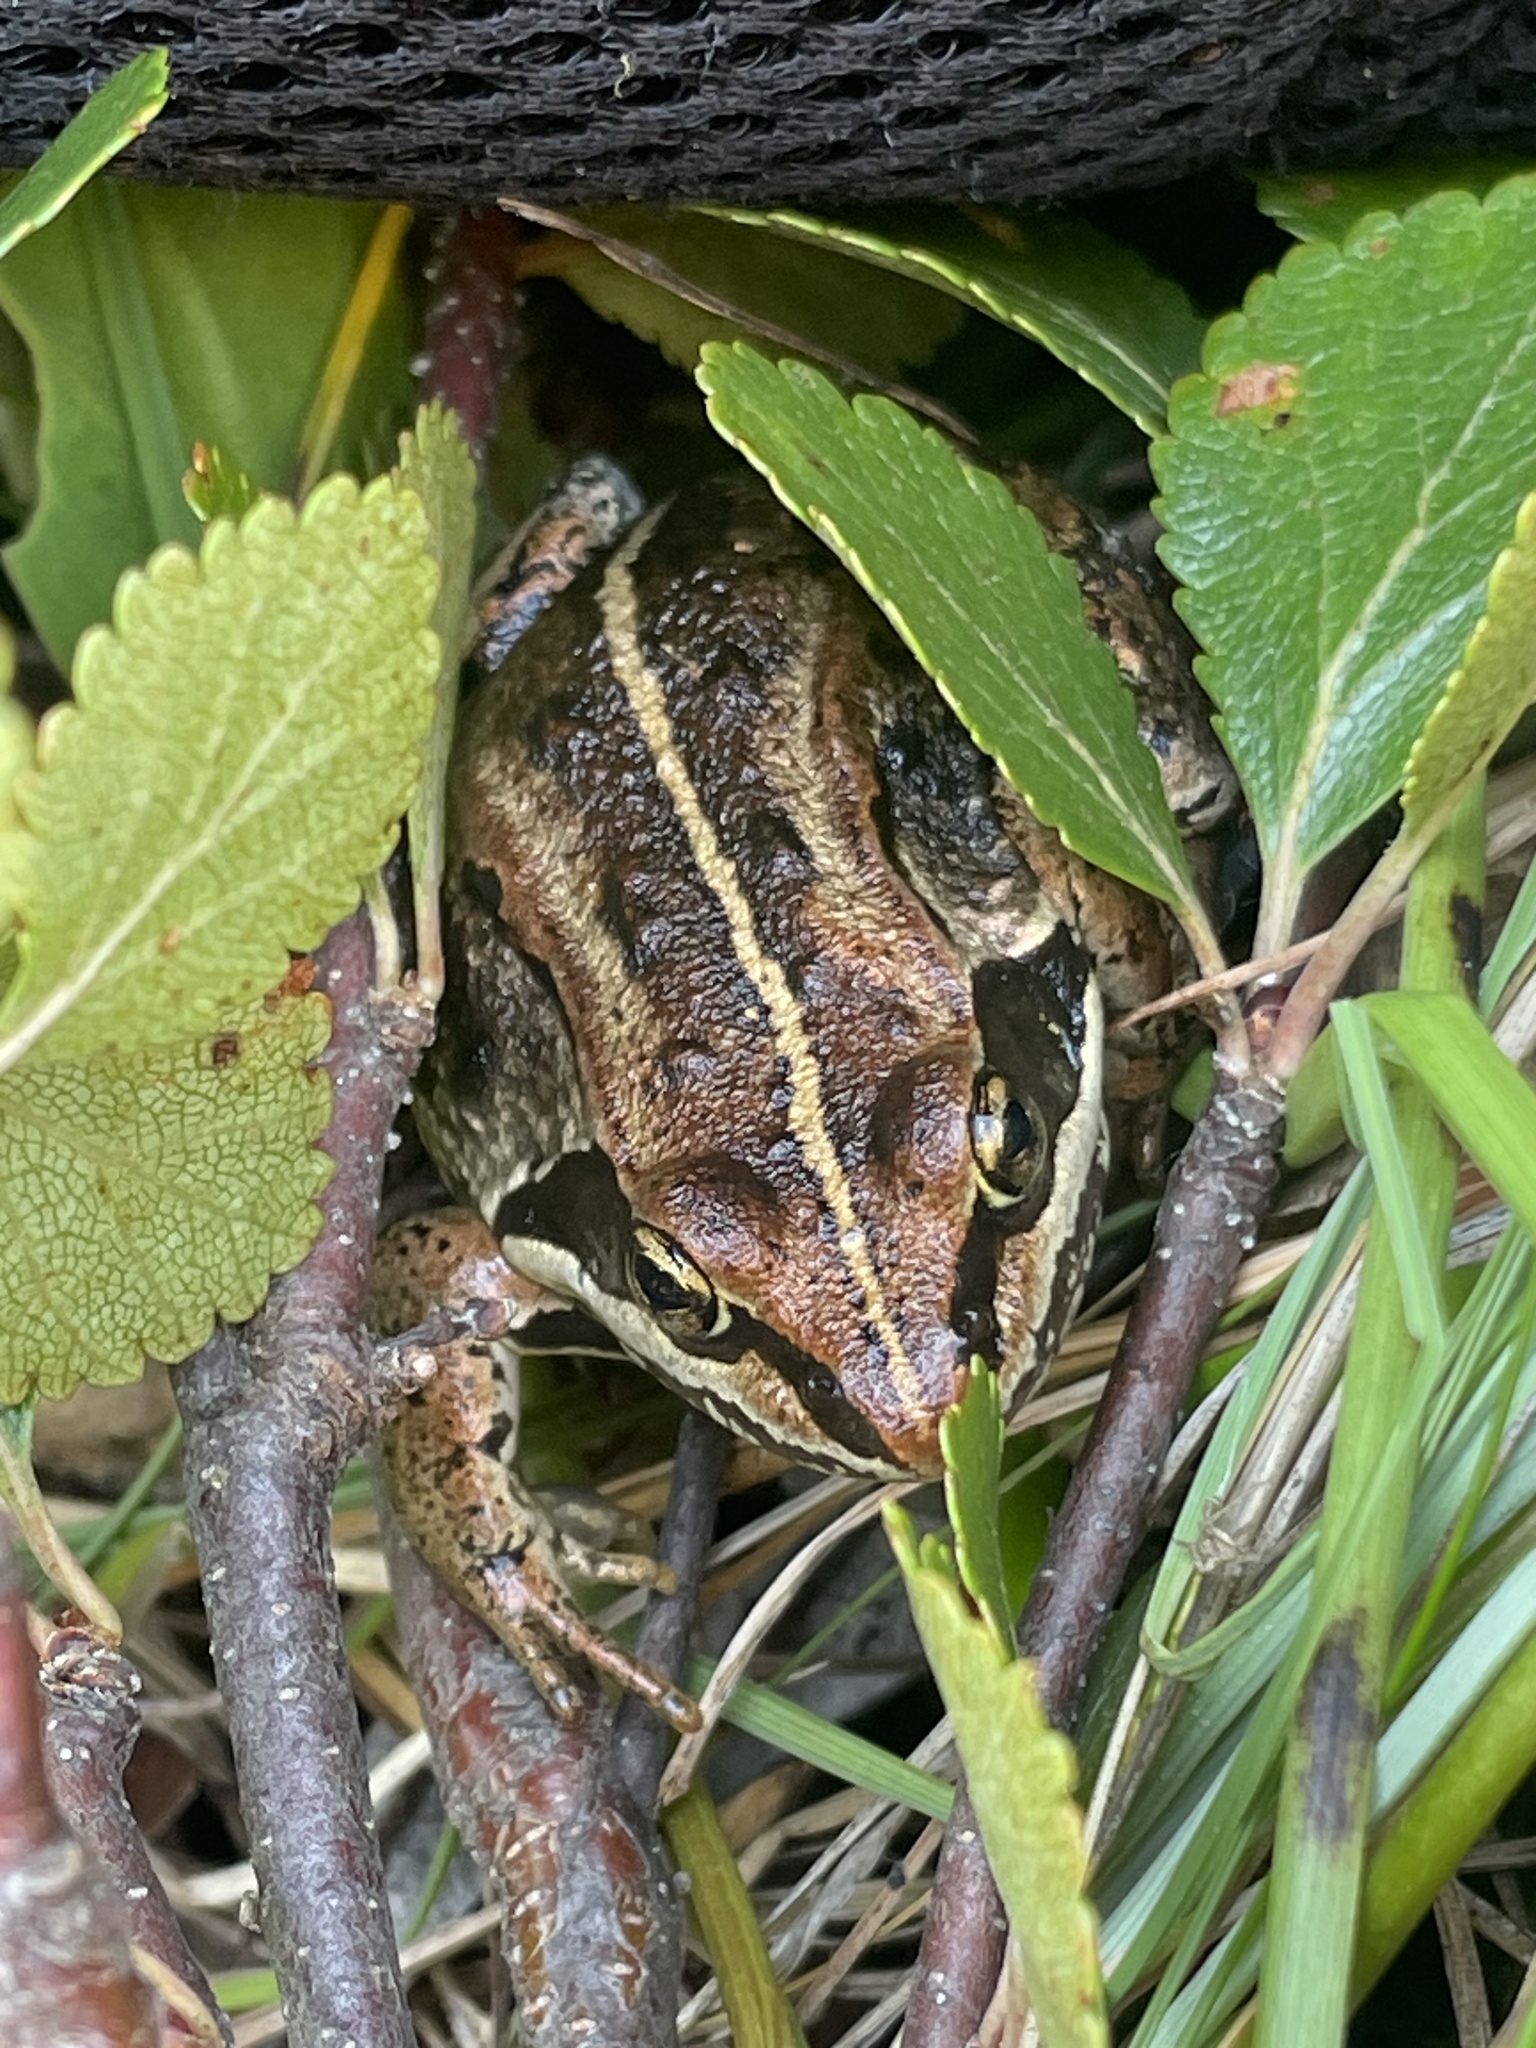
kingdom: Animalia
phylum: Chordata
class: Amphibia
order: Anura
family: Ranidae
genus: Lithobates
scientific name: Lithobates sylvaticus
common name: Wood frog
